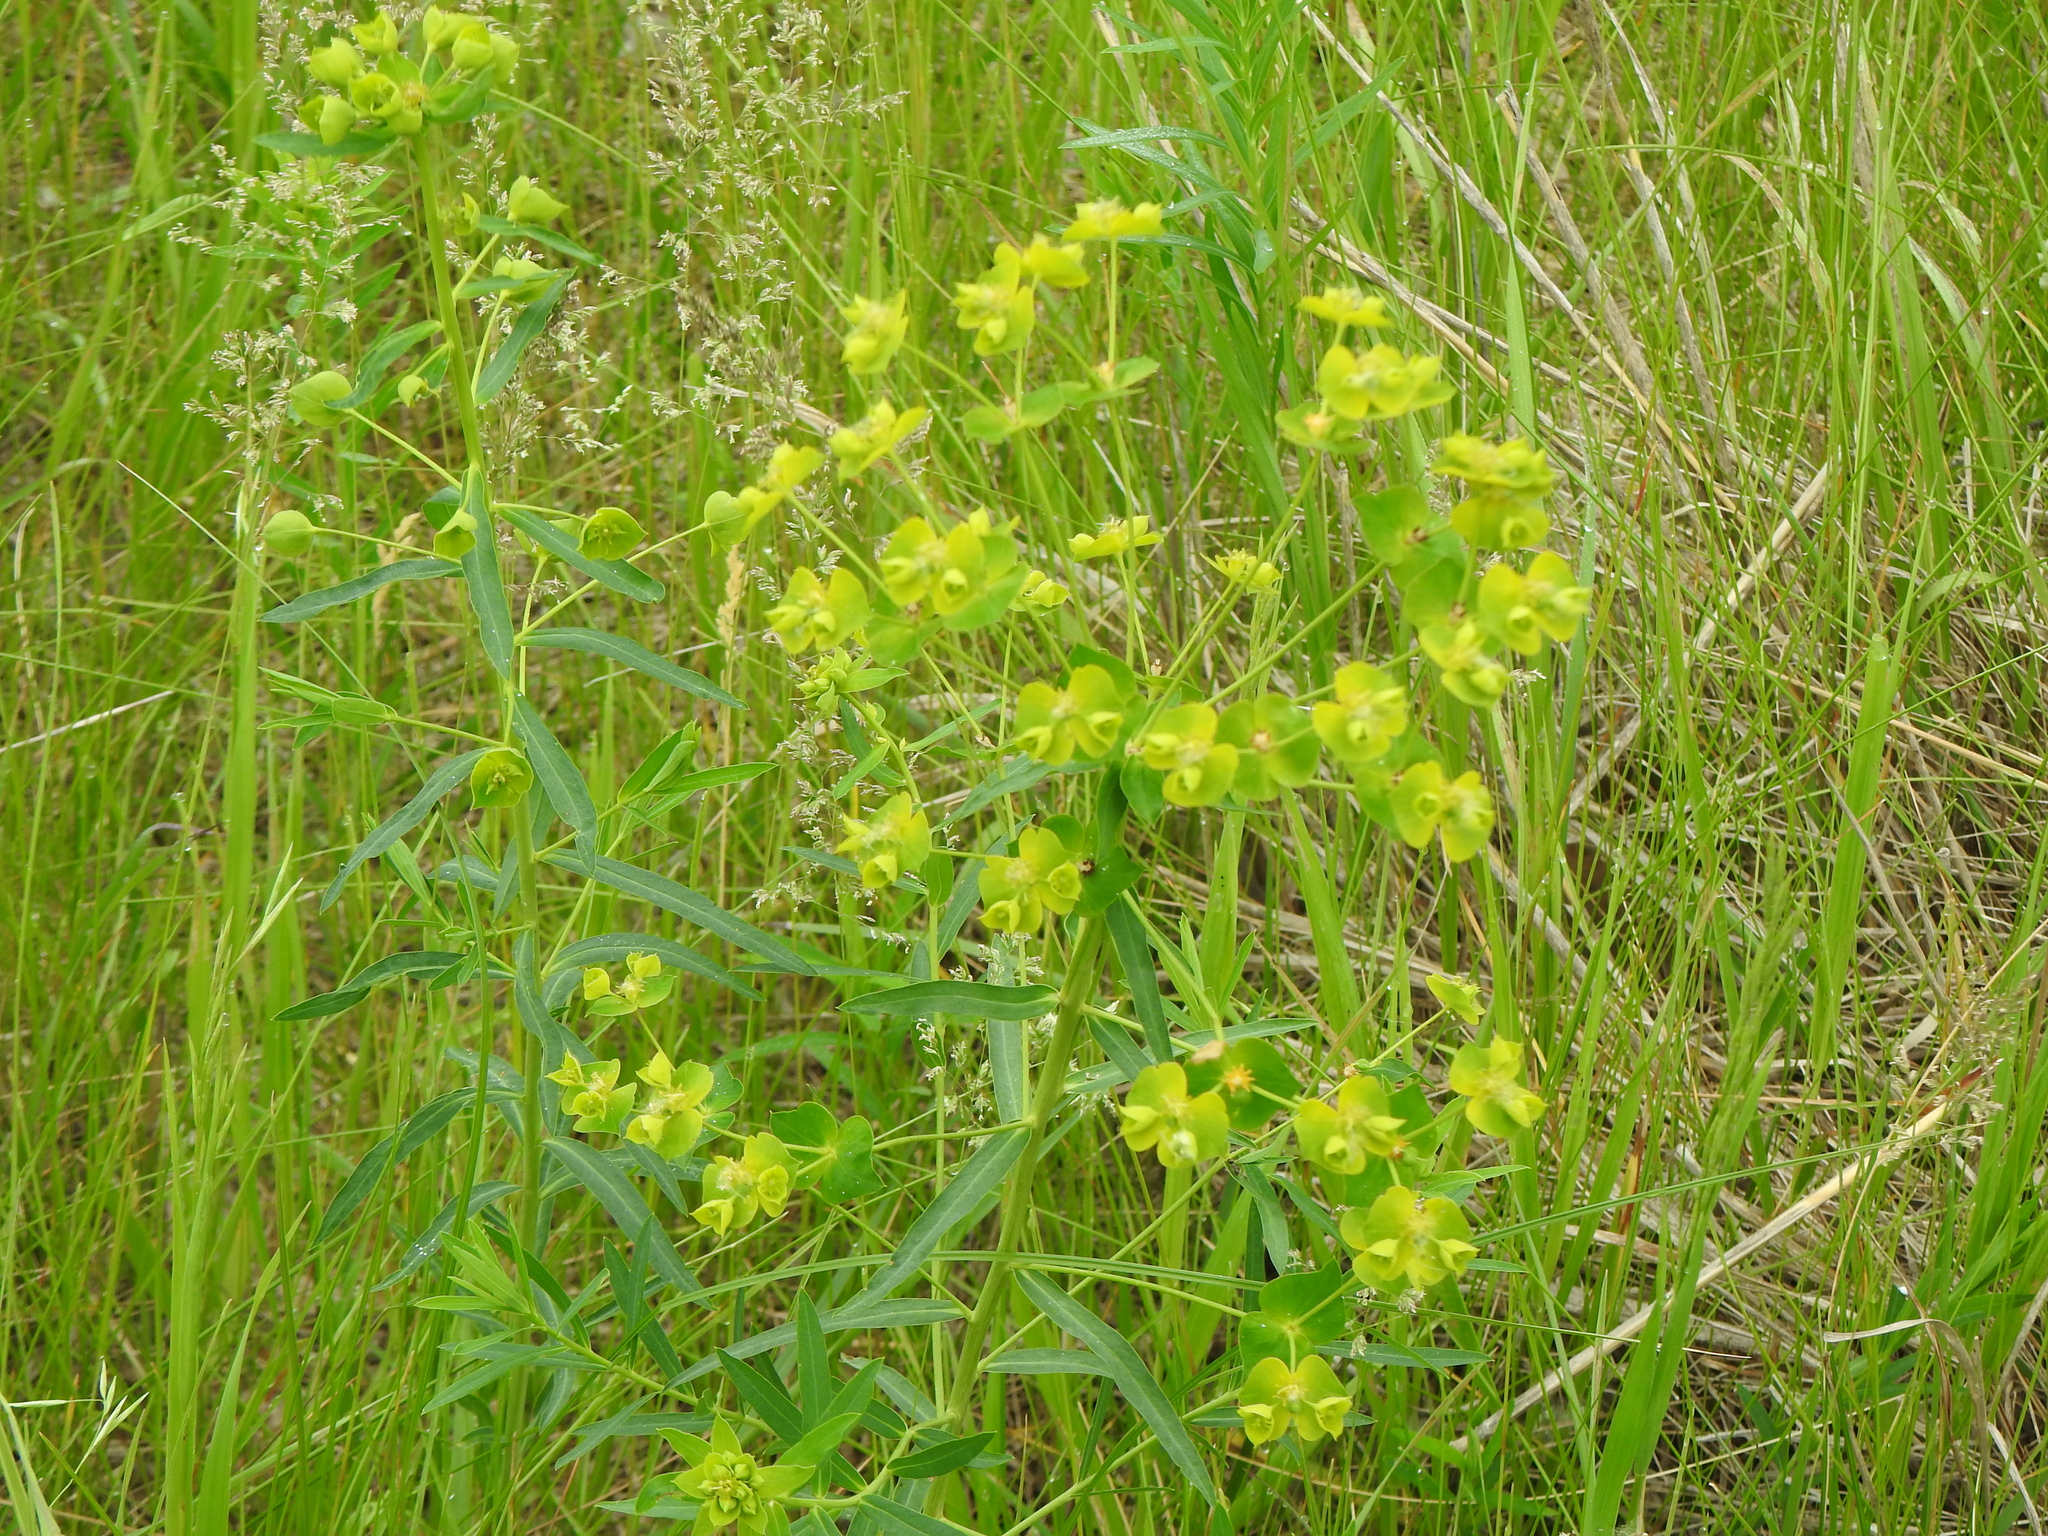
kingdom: Plantae
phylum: Tracheophyta
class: Magnoliopsida
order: Malpighiales
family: Euphorbiaceae
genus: Euphorbia
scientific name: Euphorbia virgata
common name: Leafy spurge
